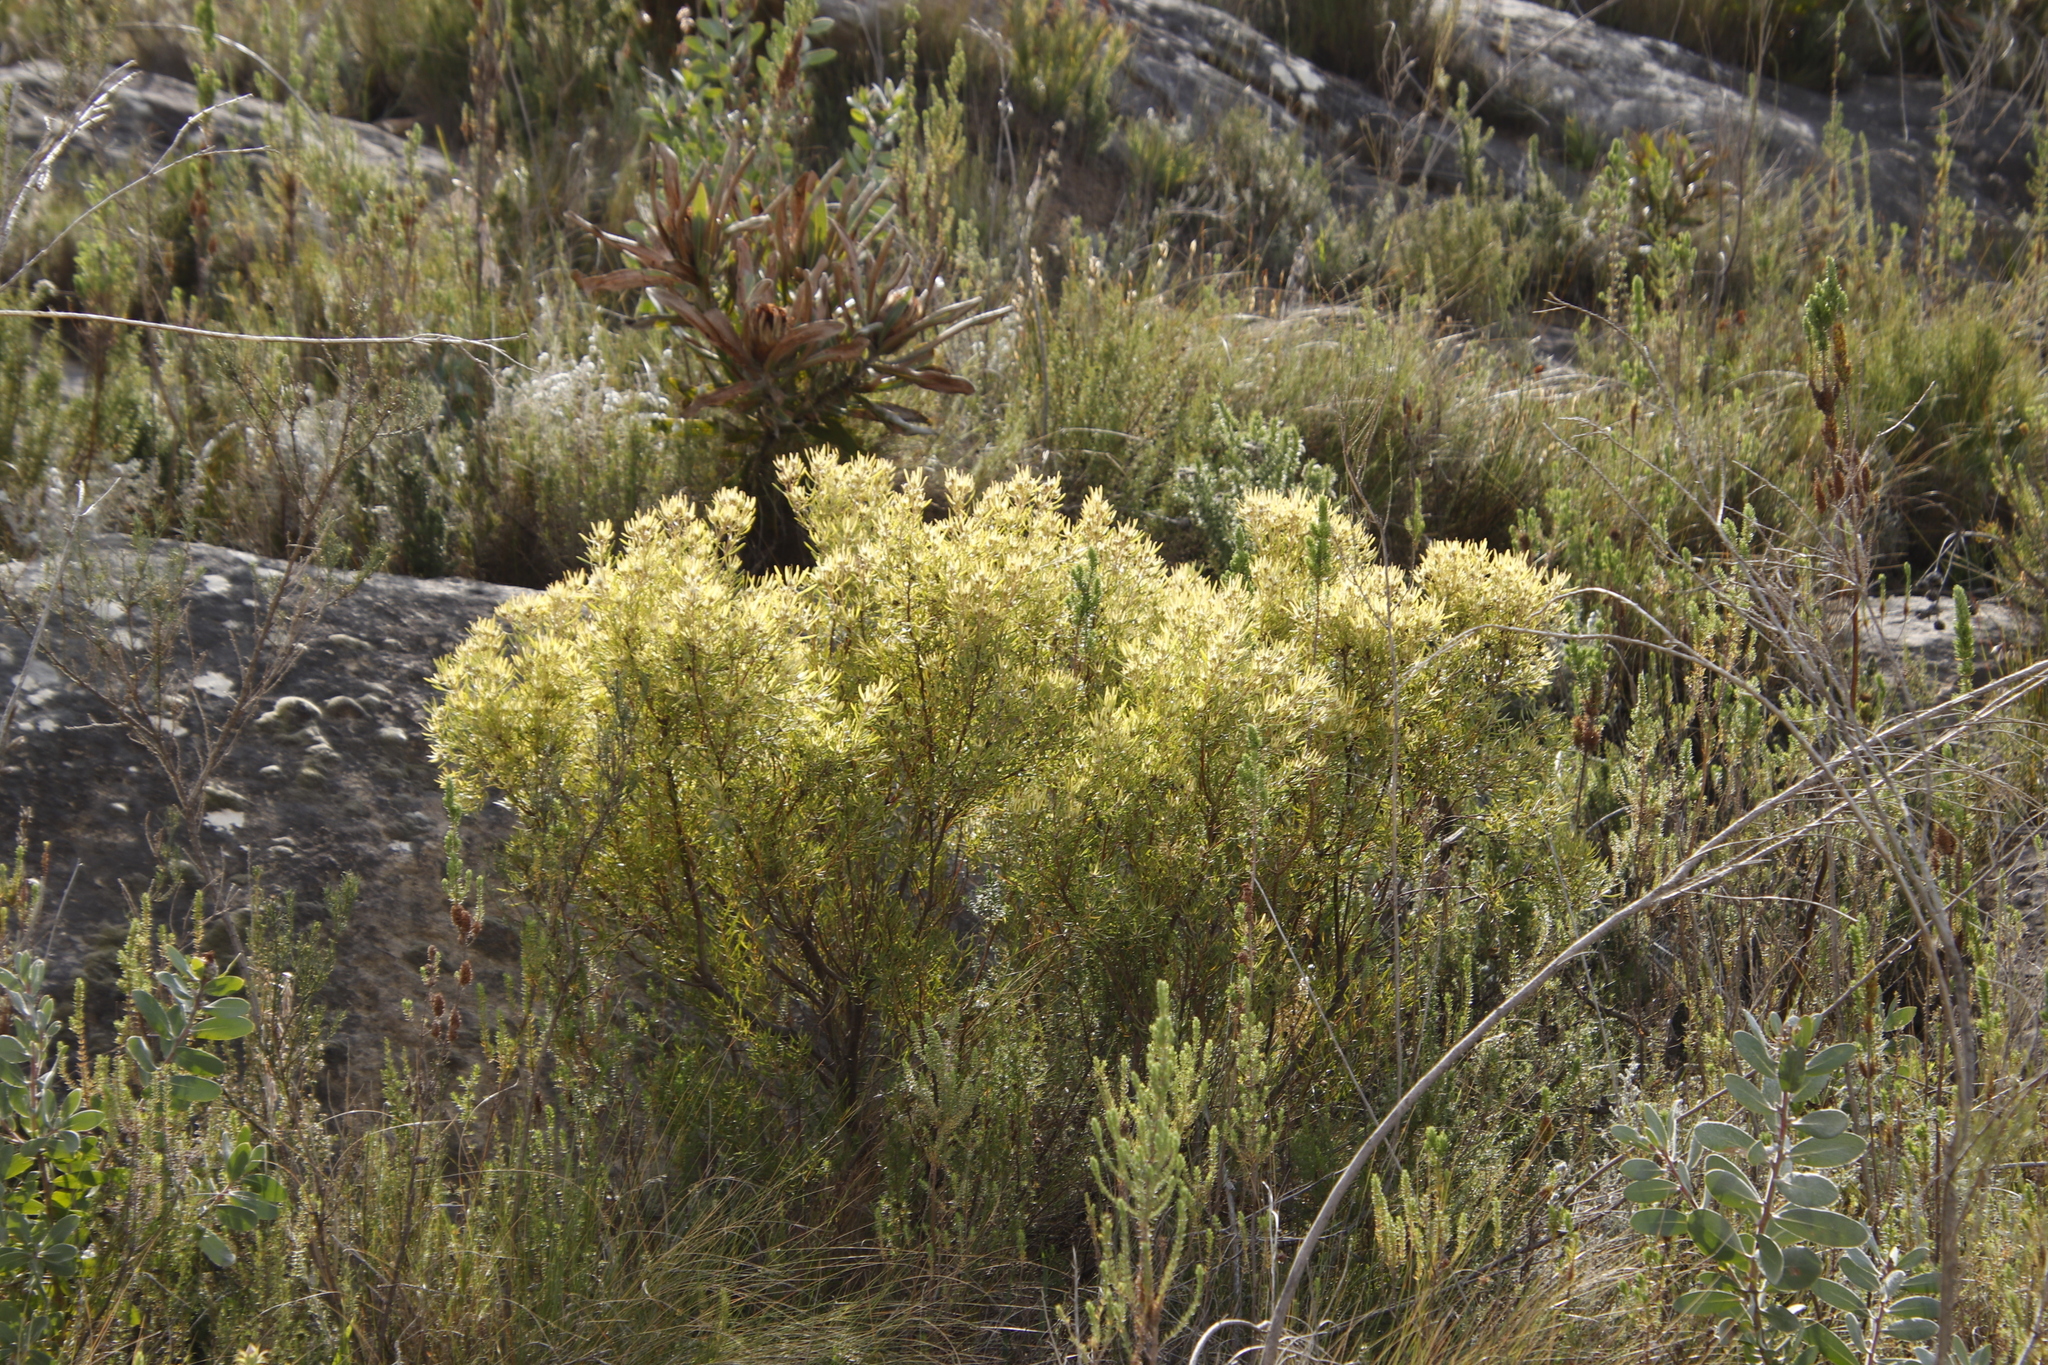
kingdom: Plantae
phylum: Tracheophyta
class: Magnoliopsida
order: Proteales
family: Proteaceae
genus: Leucadendron
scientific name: Leucadendron spissifolium
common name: Spear-leaf conebush
